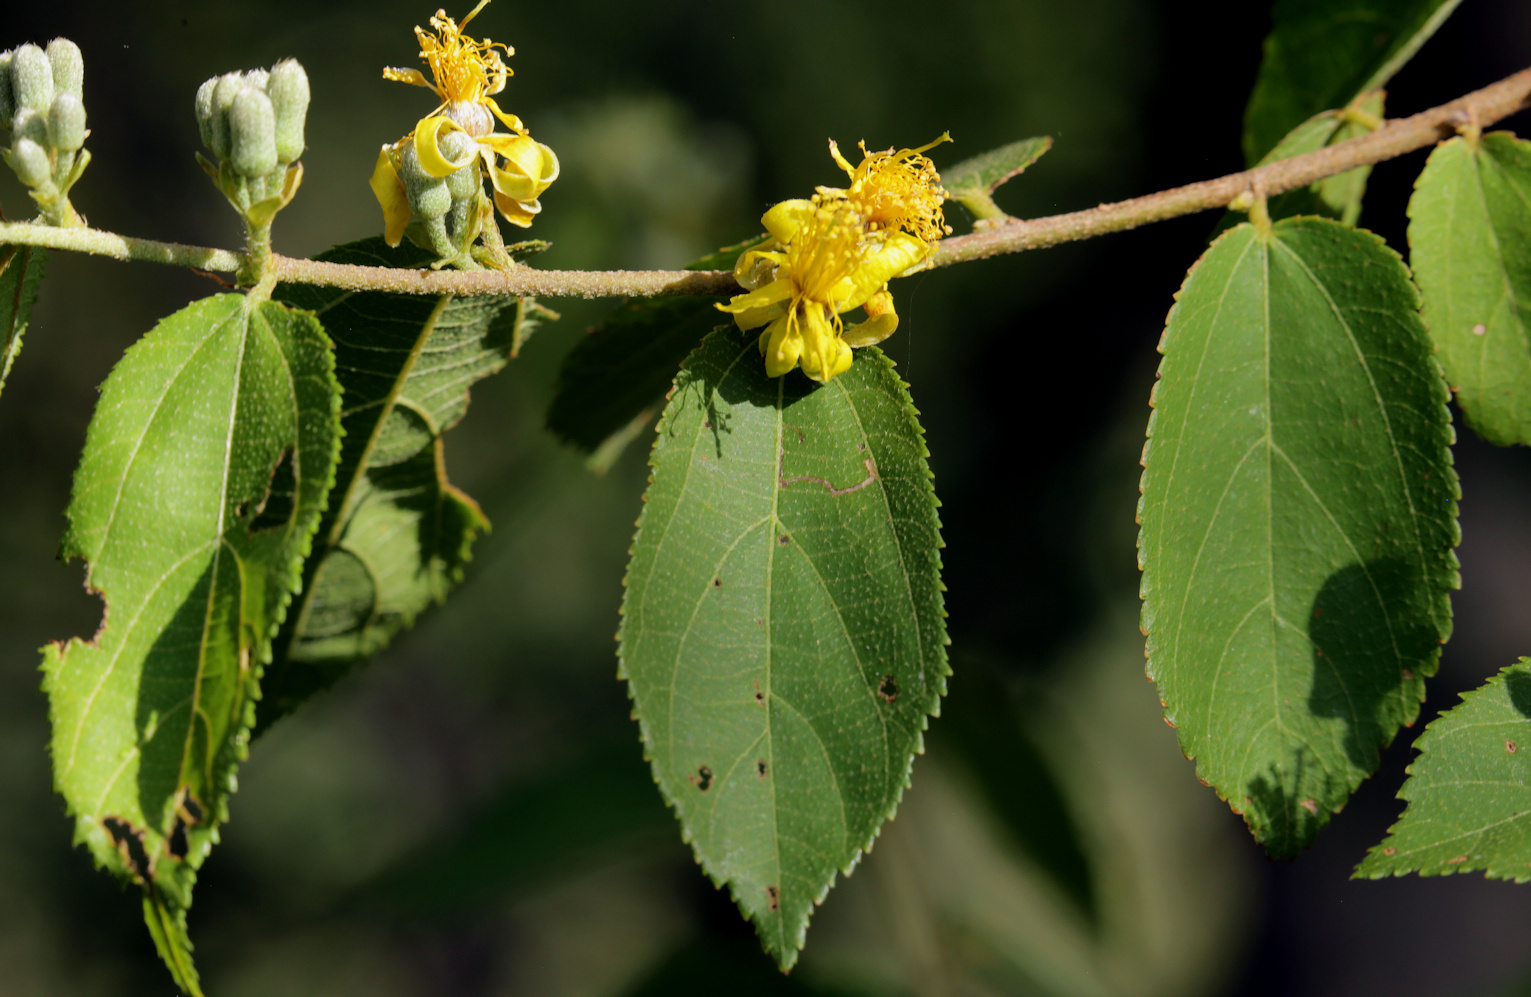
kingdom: Plantae
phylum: Tracheophyta
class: Magnoliopsida
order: Malvales
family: Malvaceae
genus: Grewia
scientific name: Grewia flavescens
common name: Sandpaper raisin
